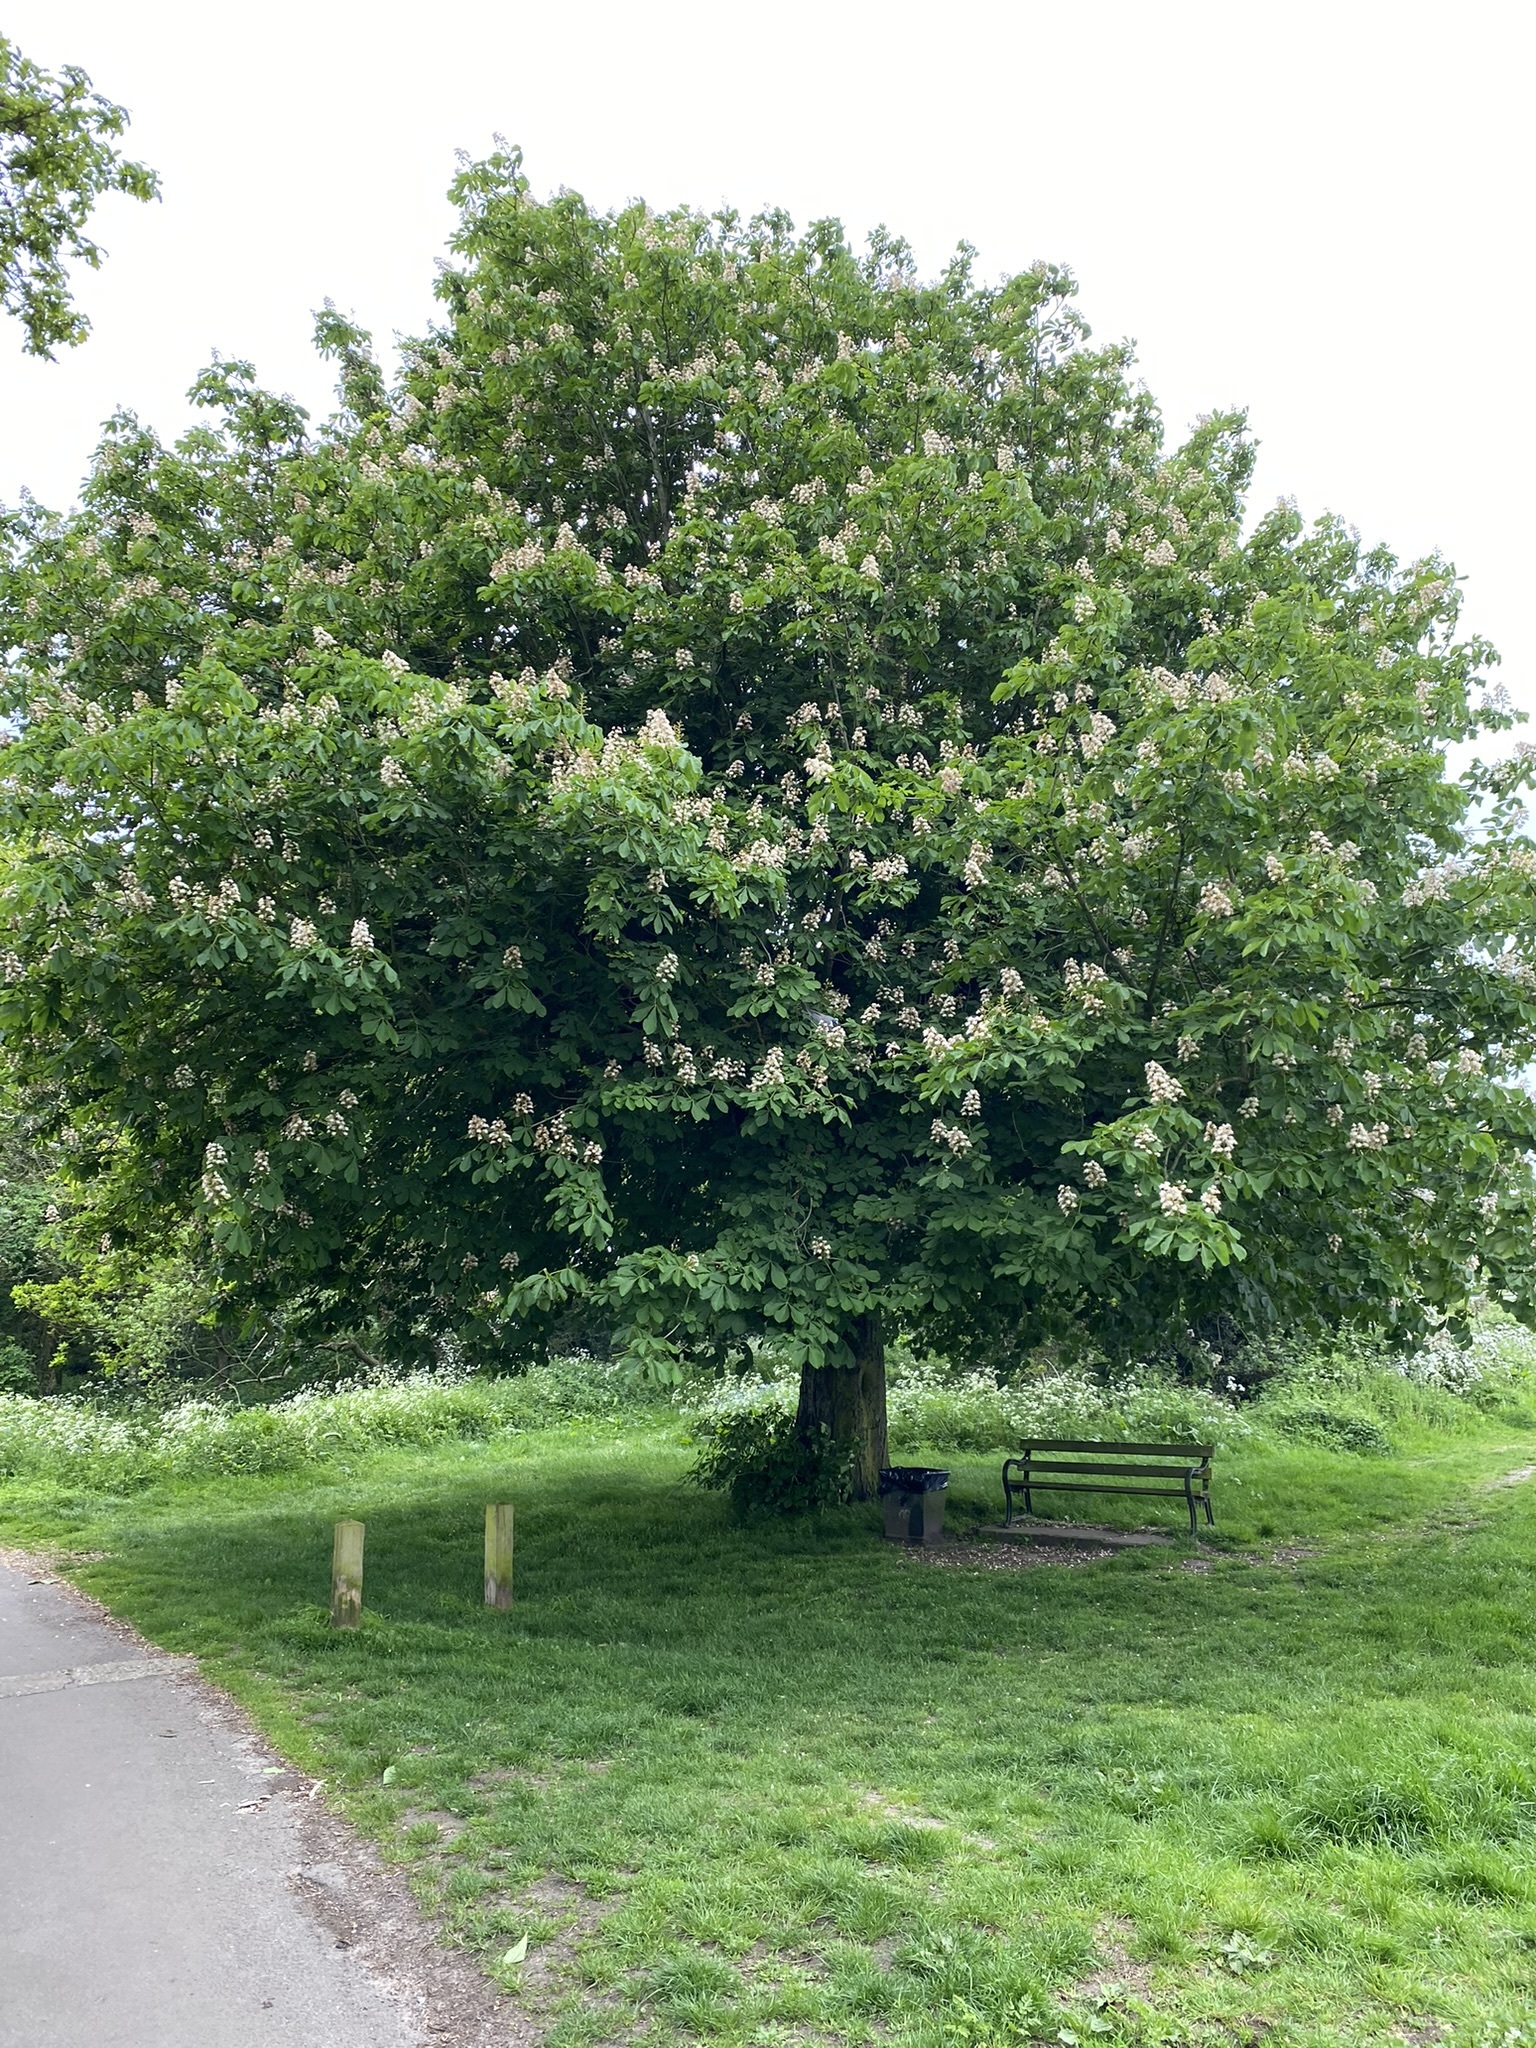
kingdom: Plantae
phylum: Tracheophyta
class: Magnoliopsida
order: Sapindales
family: Sapindaceae
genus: Aesculus
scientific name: Aesculus hippocastanum
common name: Horse-chestnut
